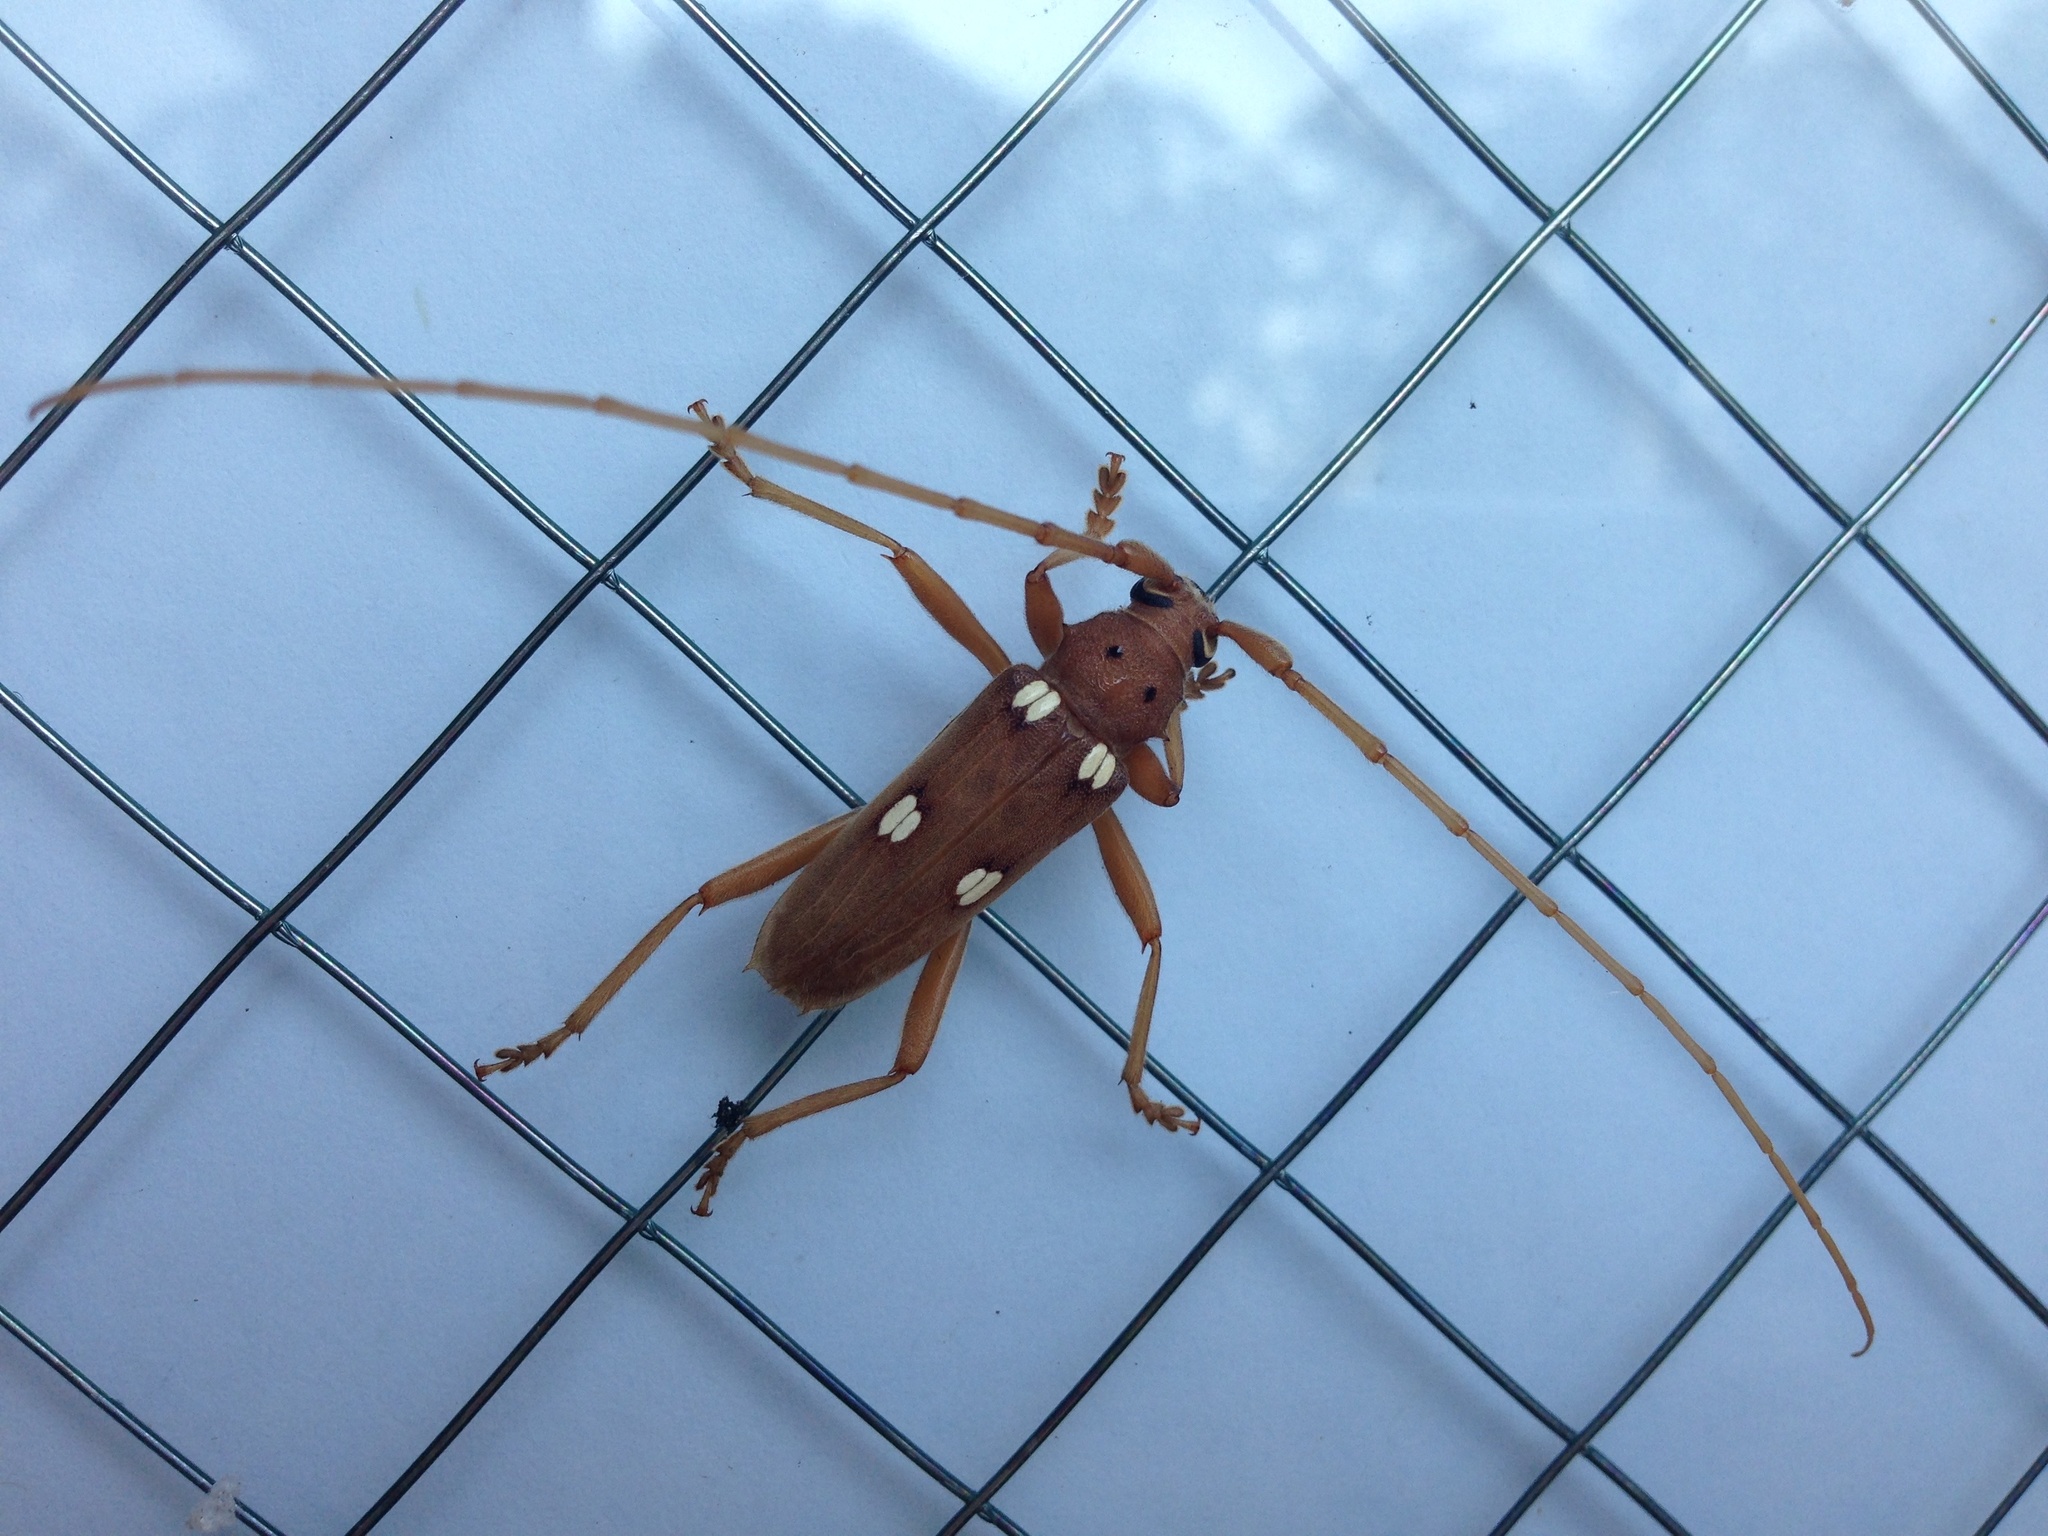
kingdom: Animalia
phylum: Arthropoda
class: Insecta
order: Coleoptera
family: Cerambycidae
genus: Eburia
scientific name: Eburia quadrigeminata
